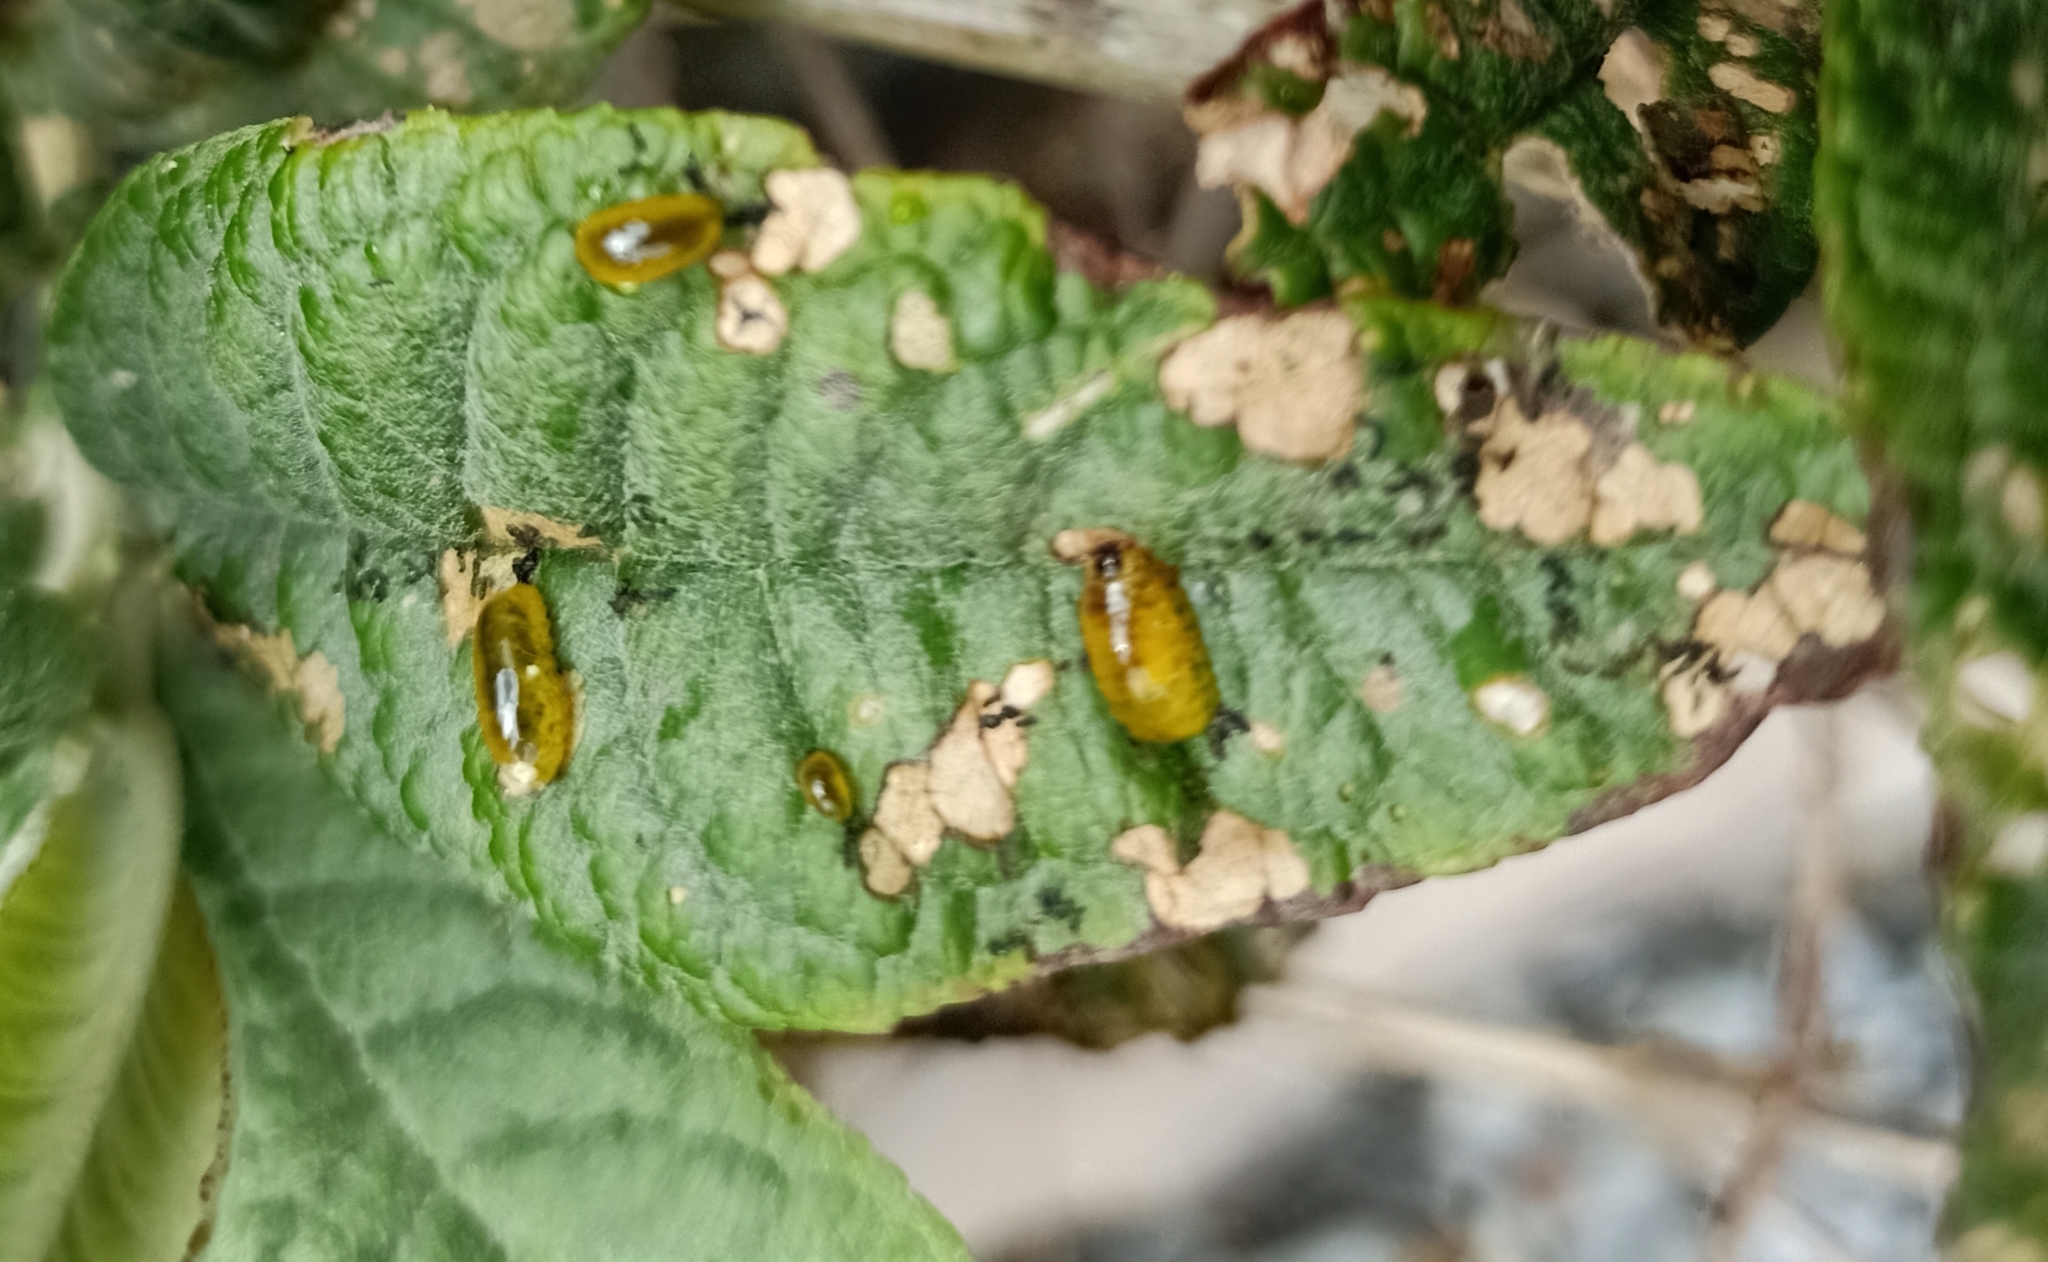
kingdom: Animalia
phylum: Arthropoda
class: Insecta
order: Coleoptera
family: Curculionidae
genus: Cleopus
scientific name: Cleopus japonicus
